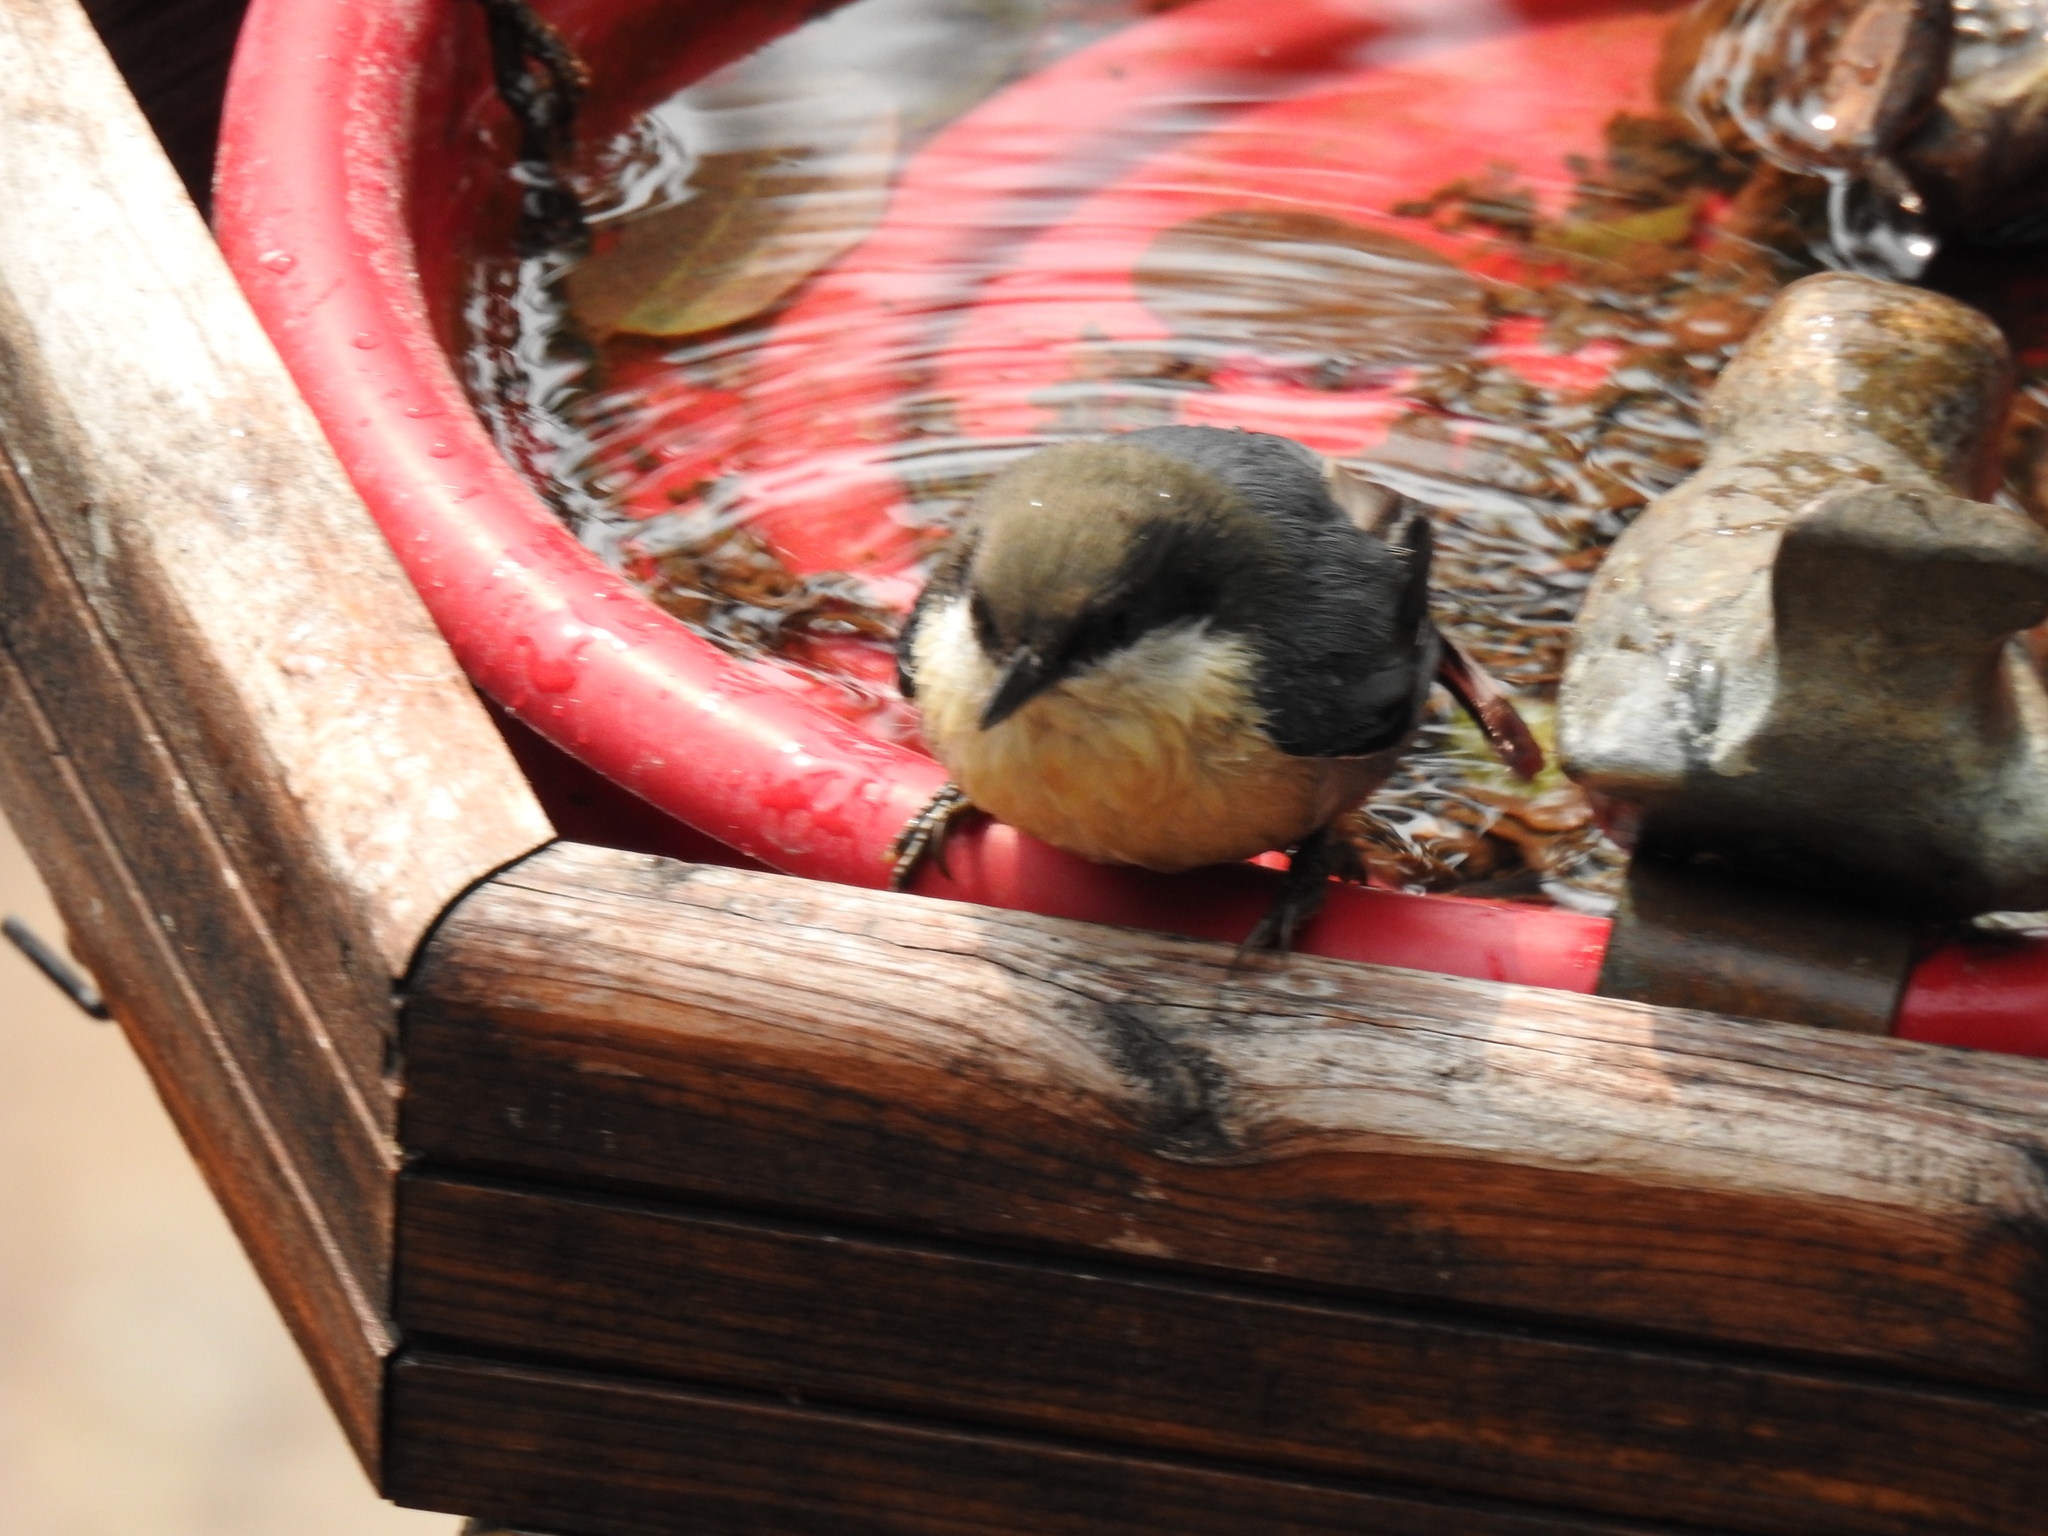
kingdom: Animalia
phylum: Chordata
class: Aves
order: Passeriformes
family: Sittidae
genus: Sitta
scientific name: Sitta pygmaea
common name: Pygmy nuthatch
